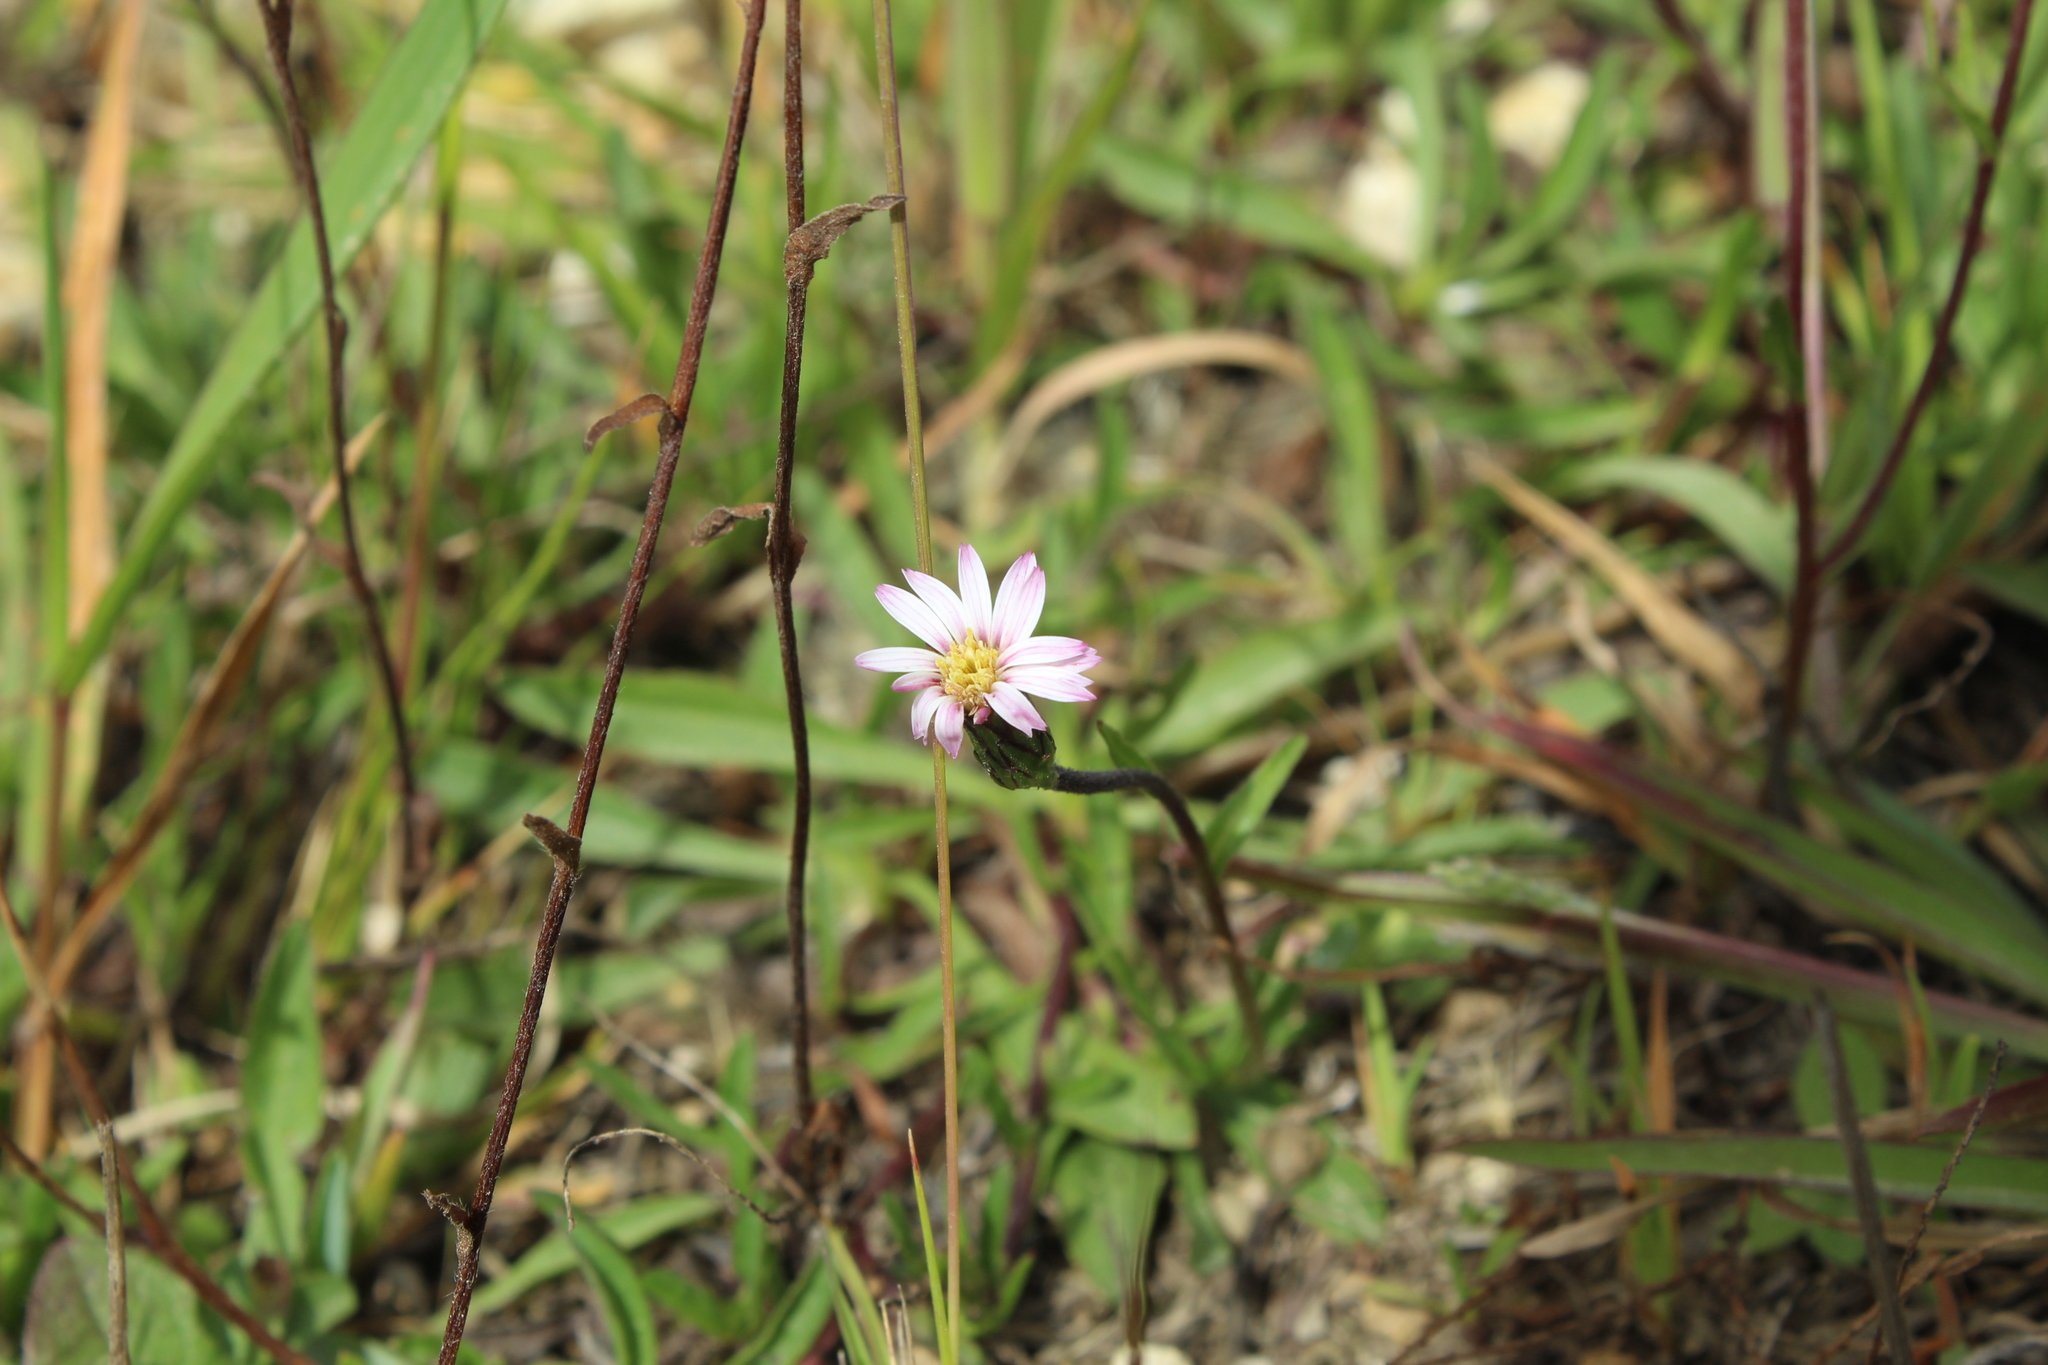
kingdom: Plantae
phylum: Tracheophyta
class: Magnoliopsida
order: Asterales
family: Asteraceae
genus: Noticastrum
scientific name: Noticastrum marginatum
